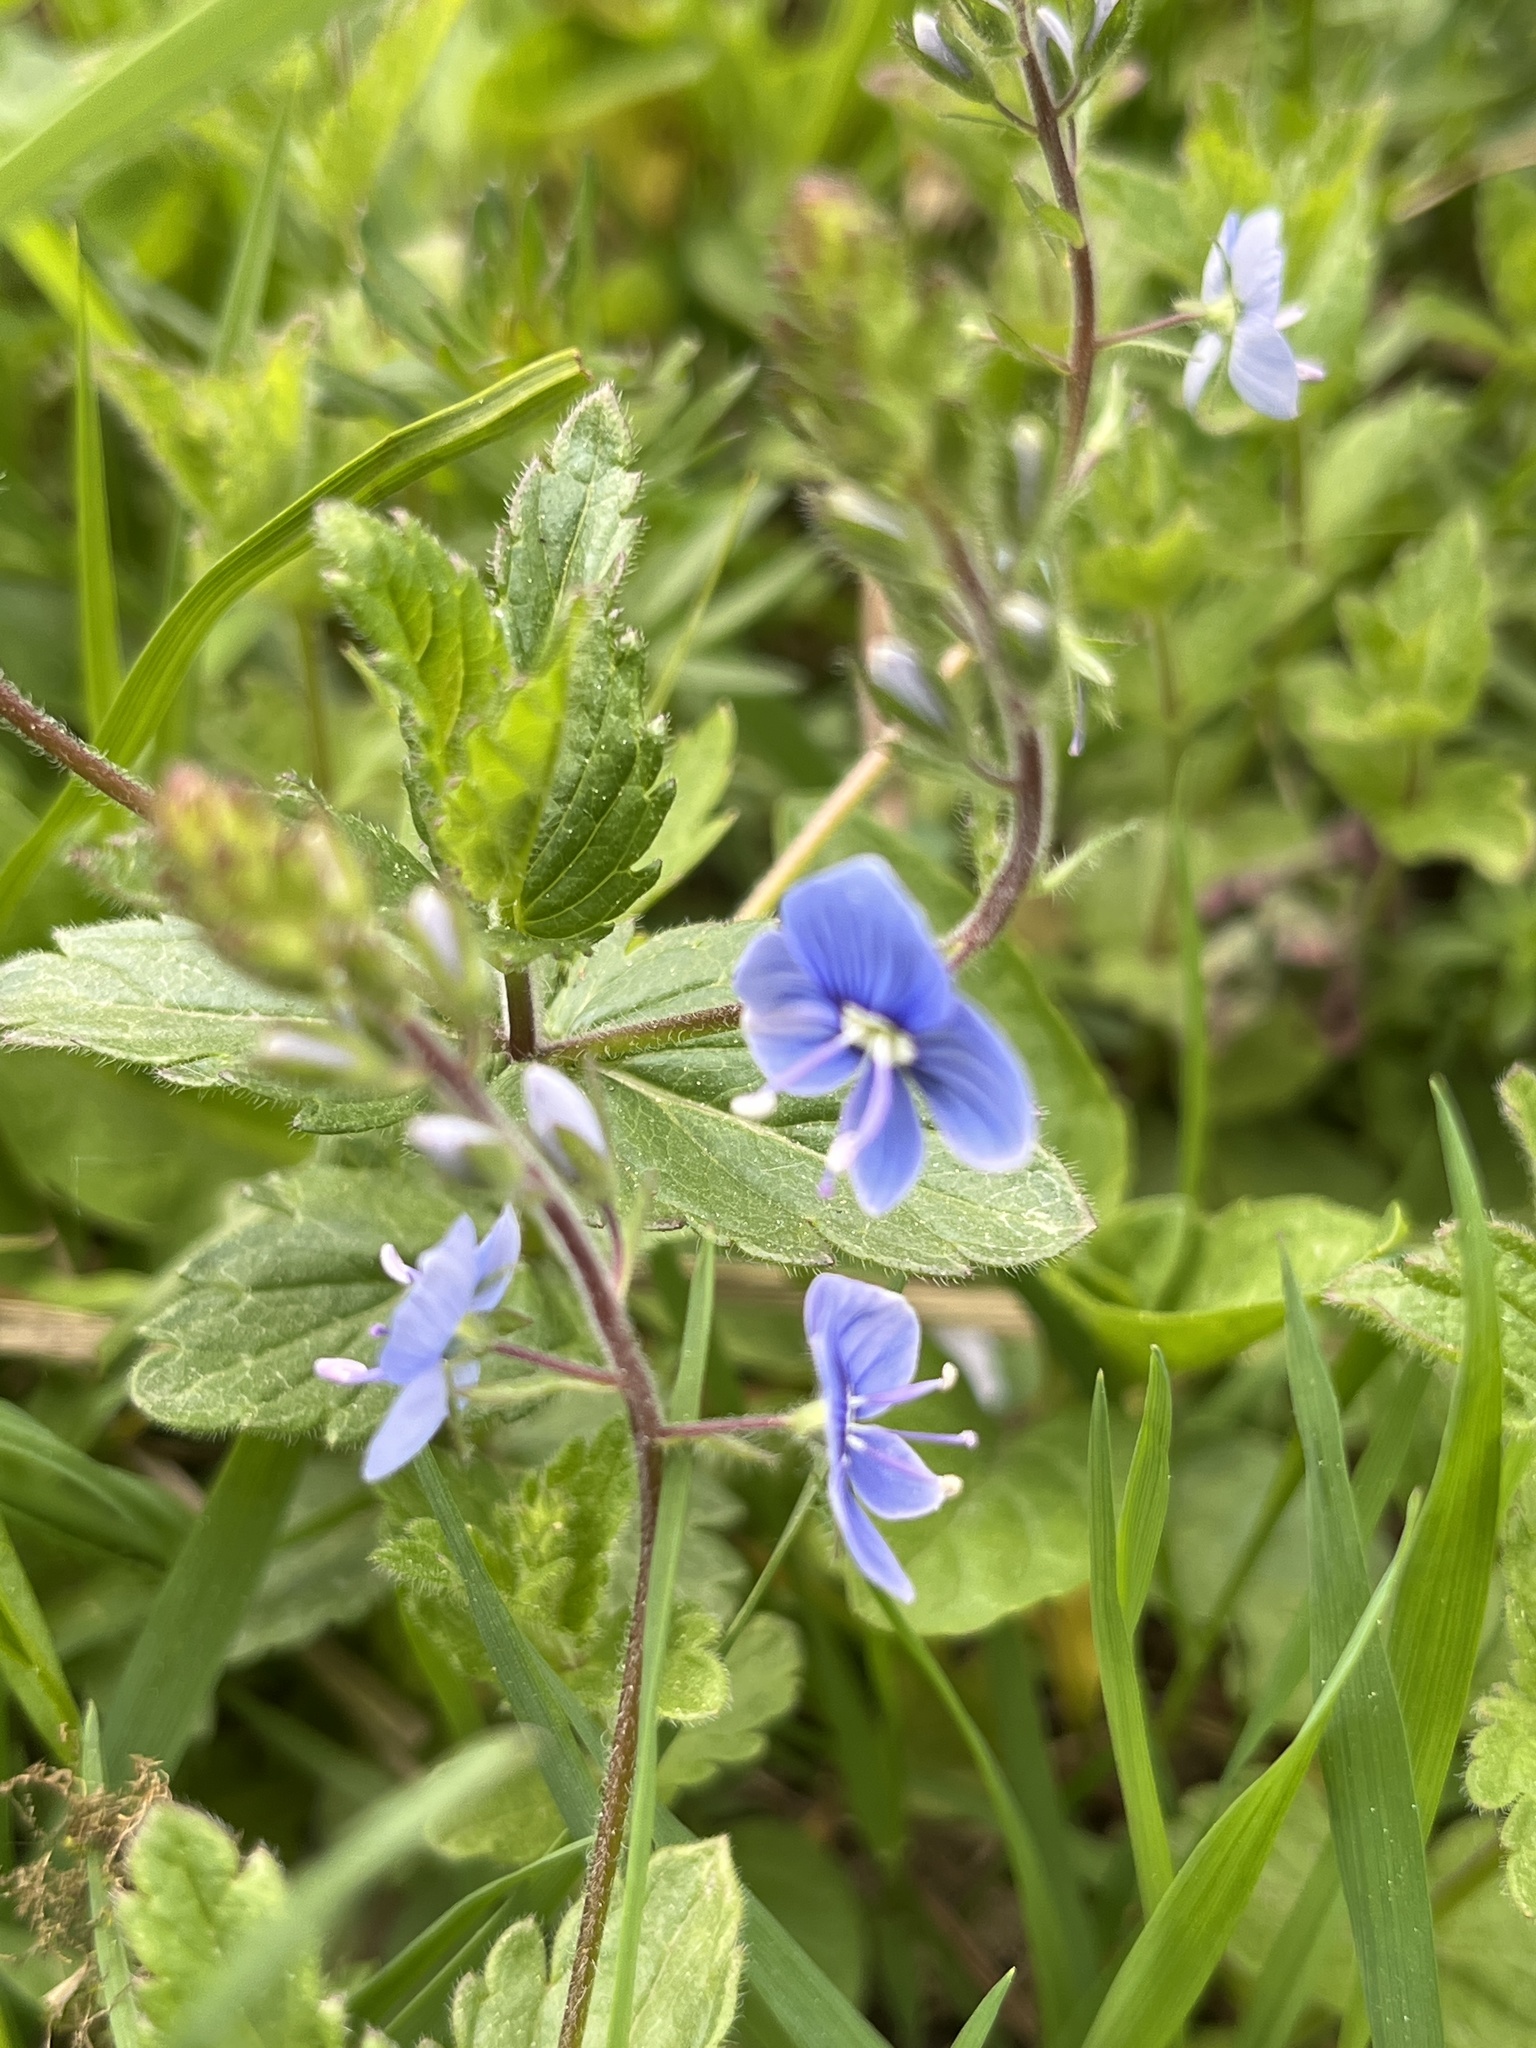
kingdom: Plantae
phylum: Tracheophyta
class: Magnoliopsida
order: Lamiales
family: Plantaginaceae
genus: Veronica
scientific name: Veronica chamaedrys
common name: Germander speedwell
